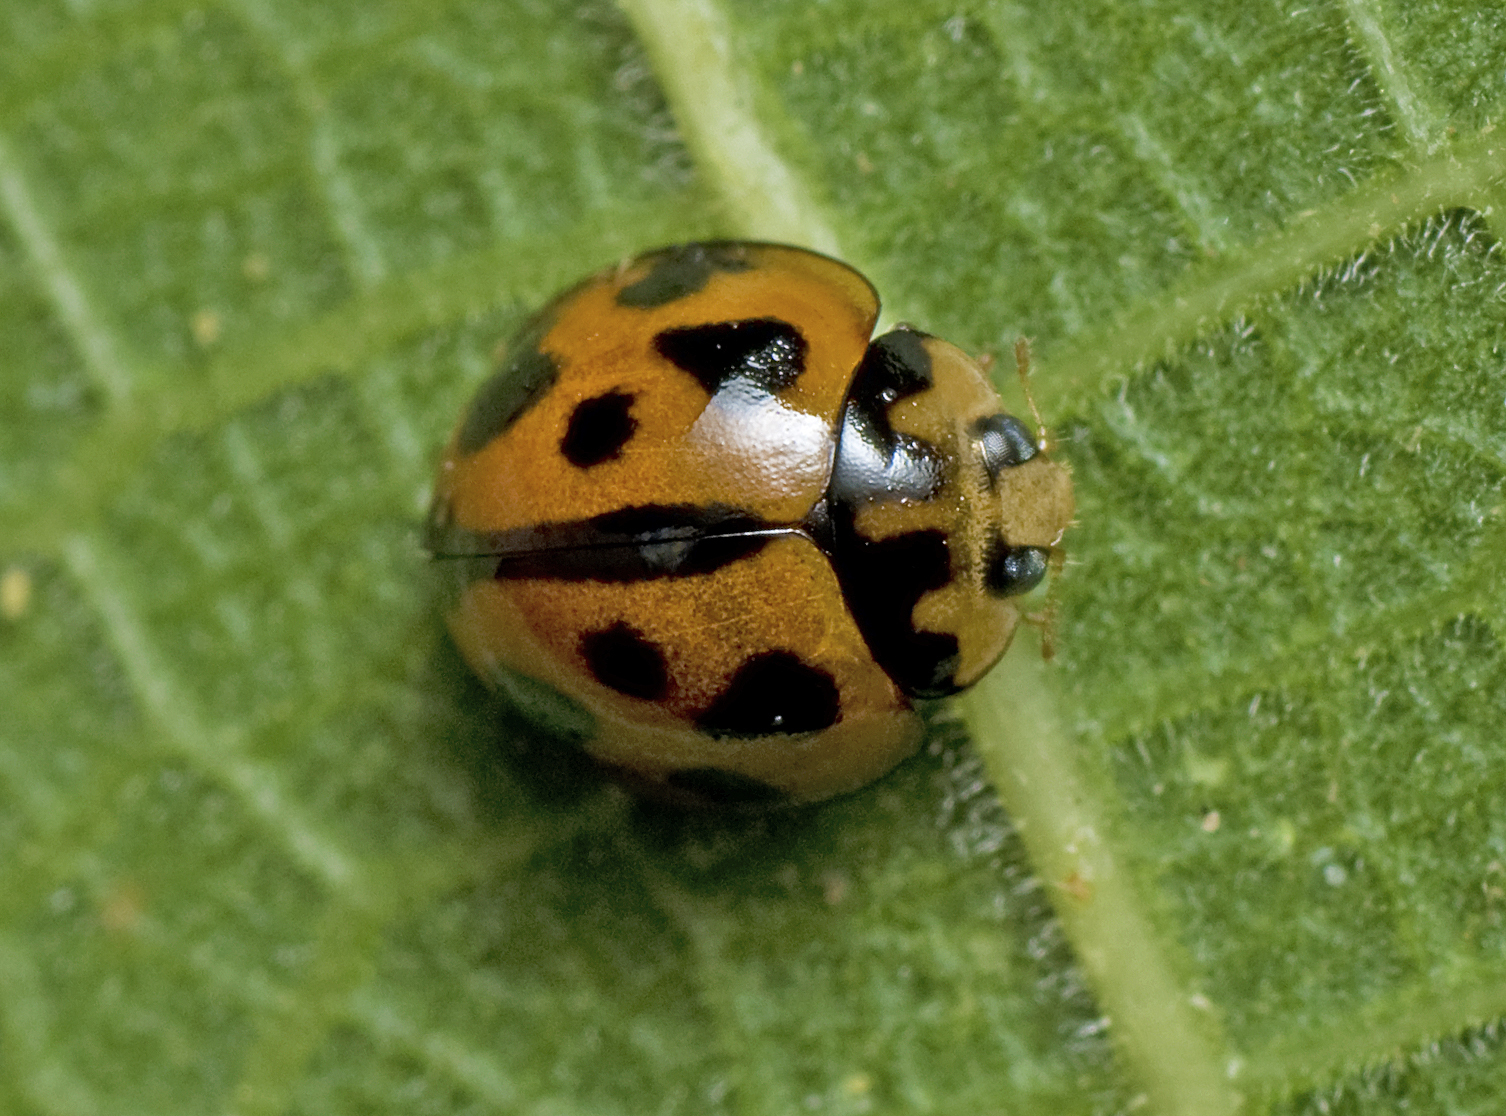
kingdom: Animalia
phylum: Arthropoda
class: Insecta
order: Coleoptera
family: Coccinellidae
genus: Coelophora
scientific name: Coelophora inaequalis
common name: Common australian lady beetle
